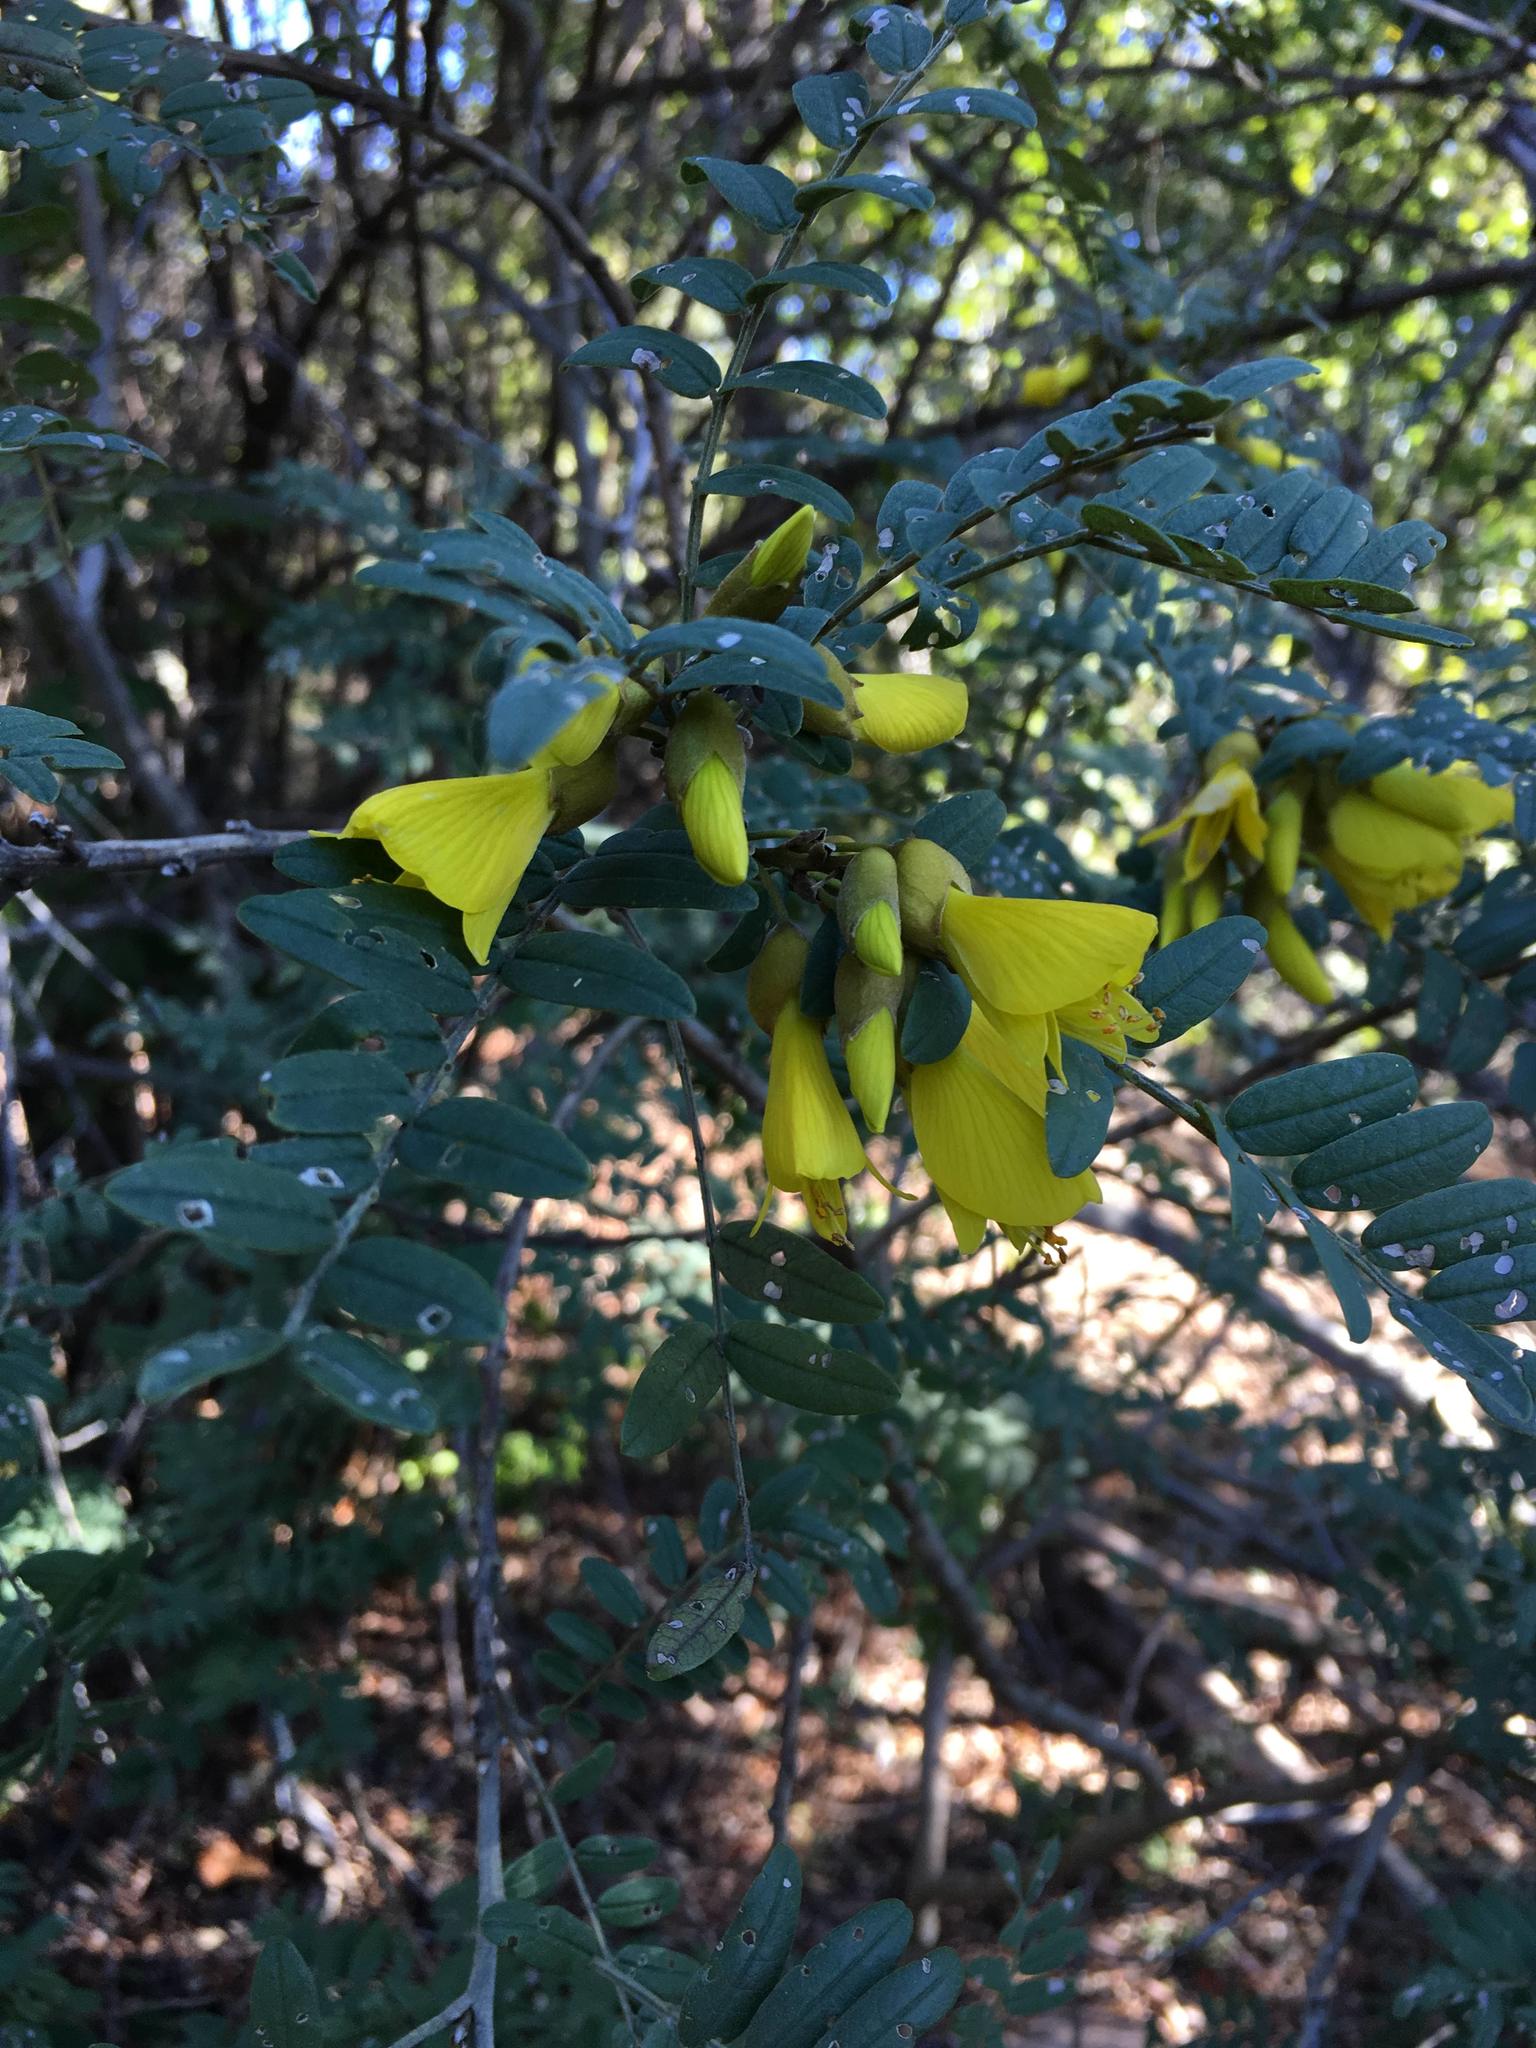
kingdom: Plantae
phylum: Tracheophyta
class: Magnoliopsida
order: Fabales
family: Fabaceae
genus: Sophora
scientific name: Sophora macrocarpa
